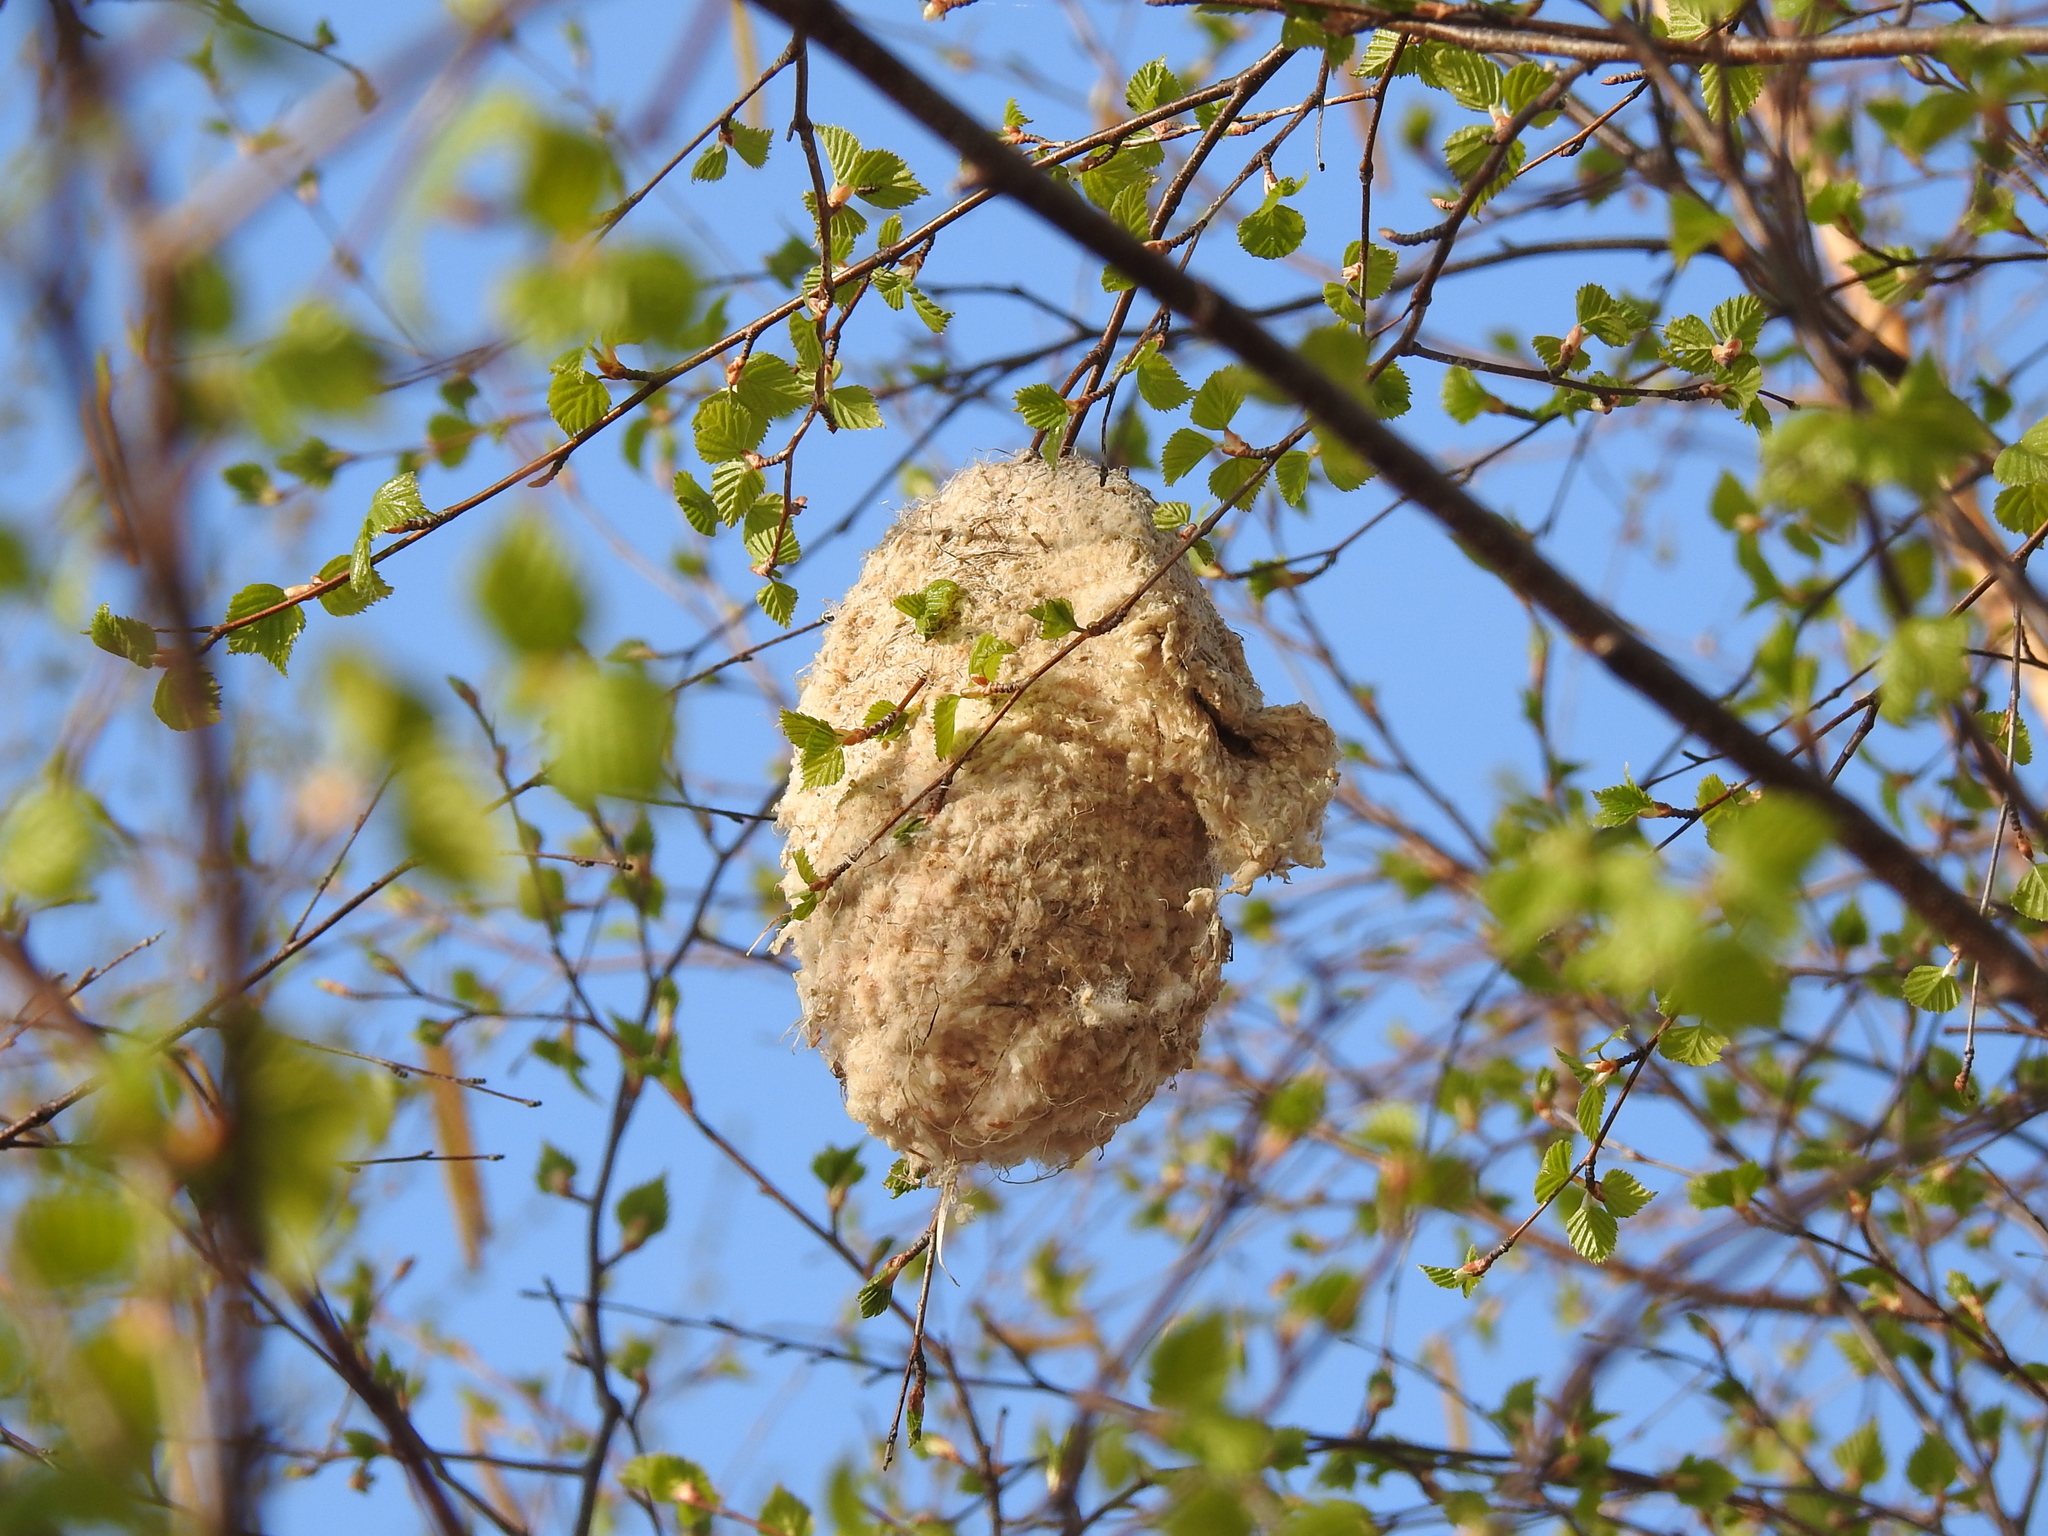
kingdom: Animalia
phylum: Chordata
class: Aves
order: Passeriformes
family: Remizidae
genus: Remiz
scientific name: Remiz pendulinus
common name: Eurasian penduline tit
